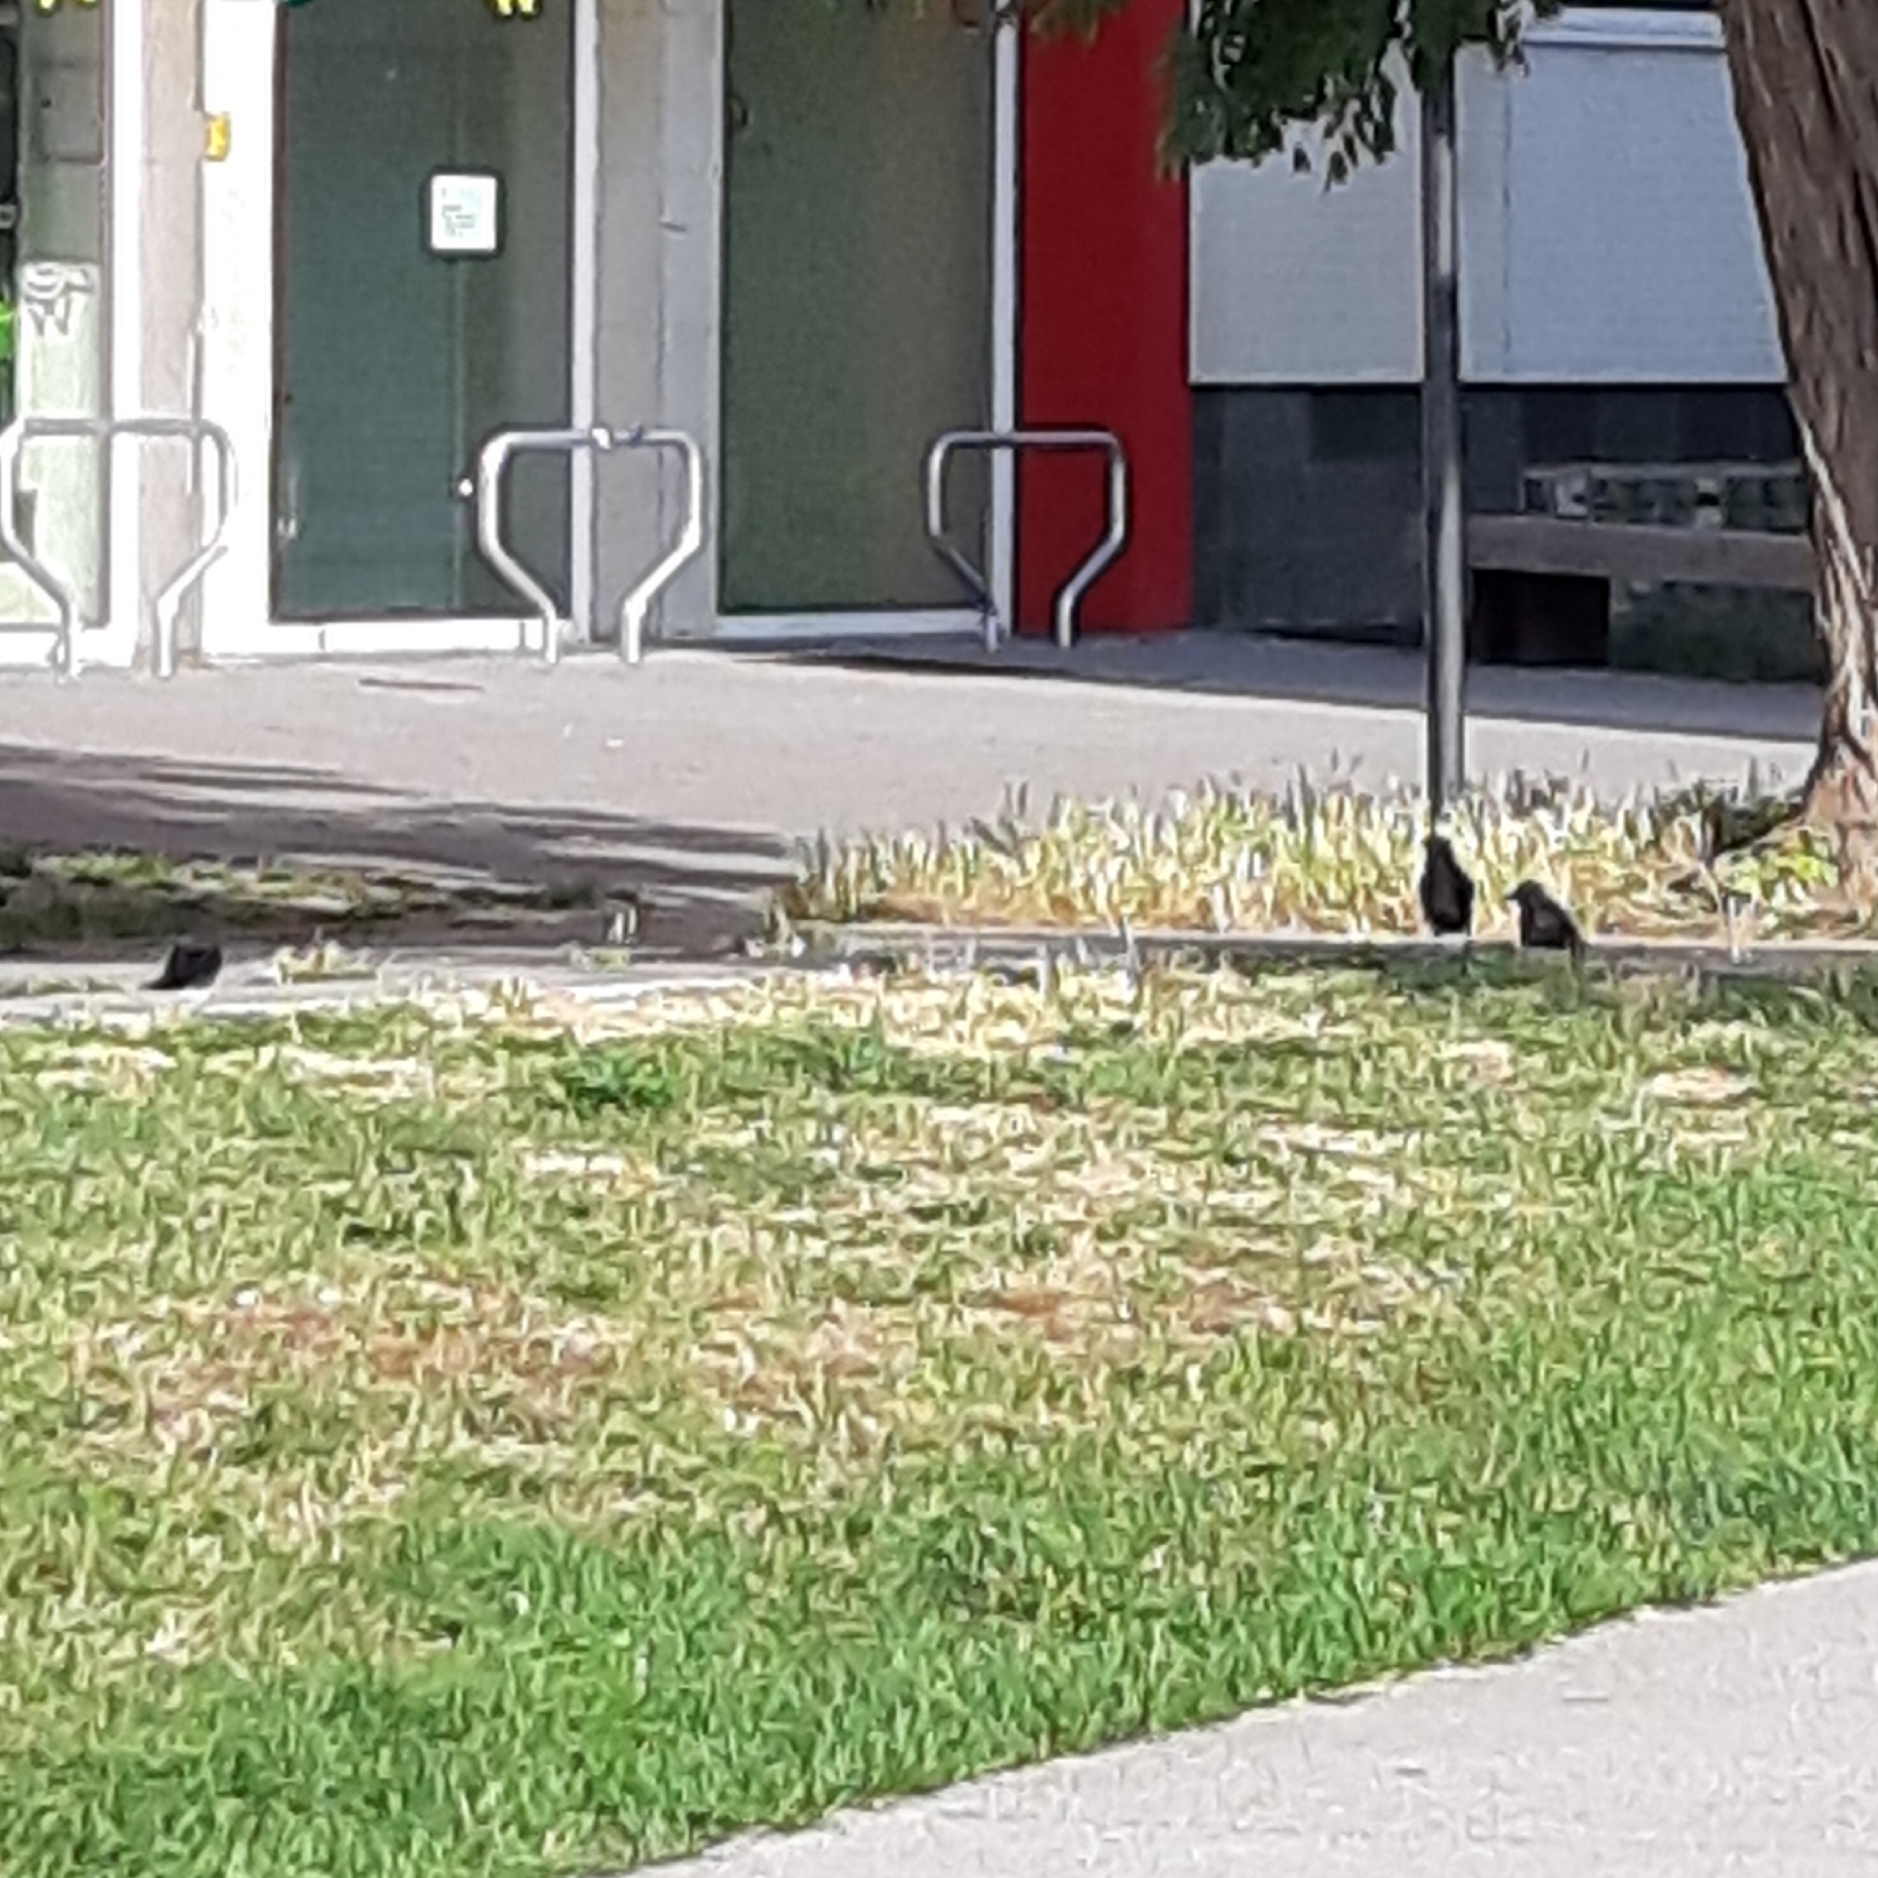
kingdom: Animalia
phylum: Chordata
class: Aves
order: Passeriformes
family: Corvidae
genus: Coloeus
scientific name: Coloeus monedula
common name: Western jackdaw
